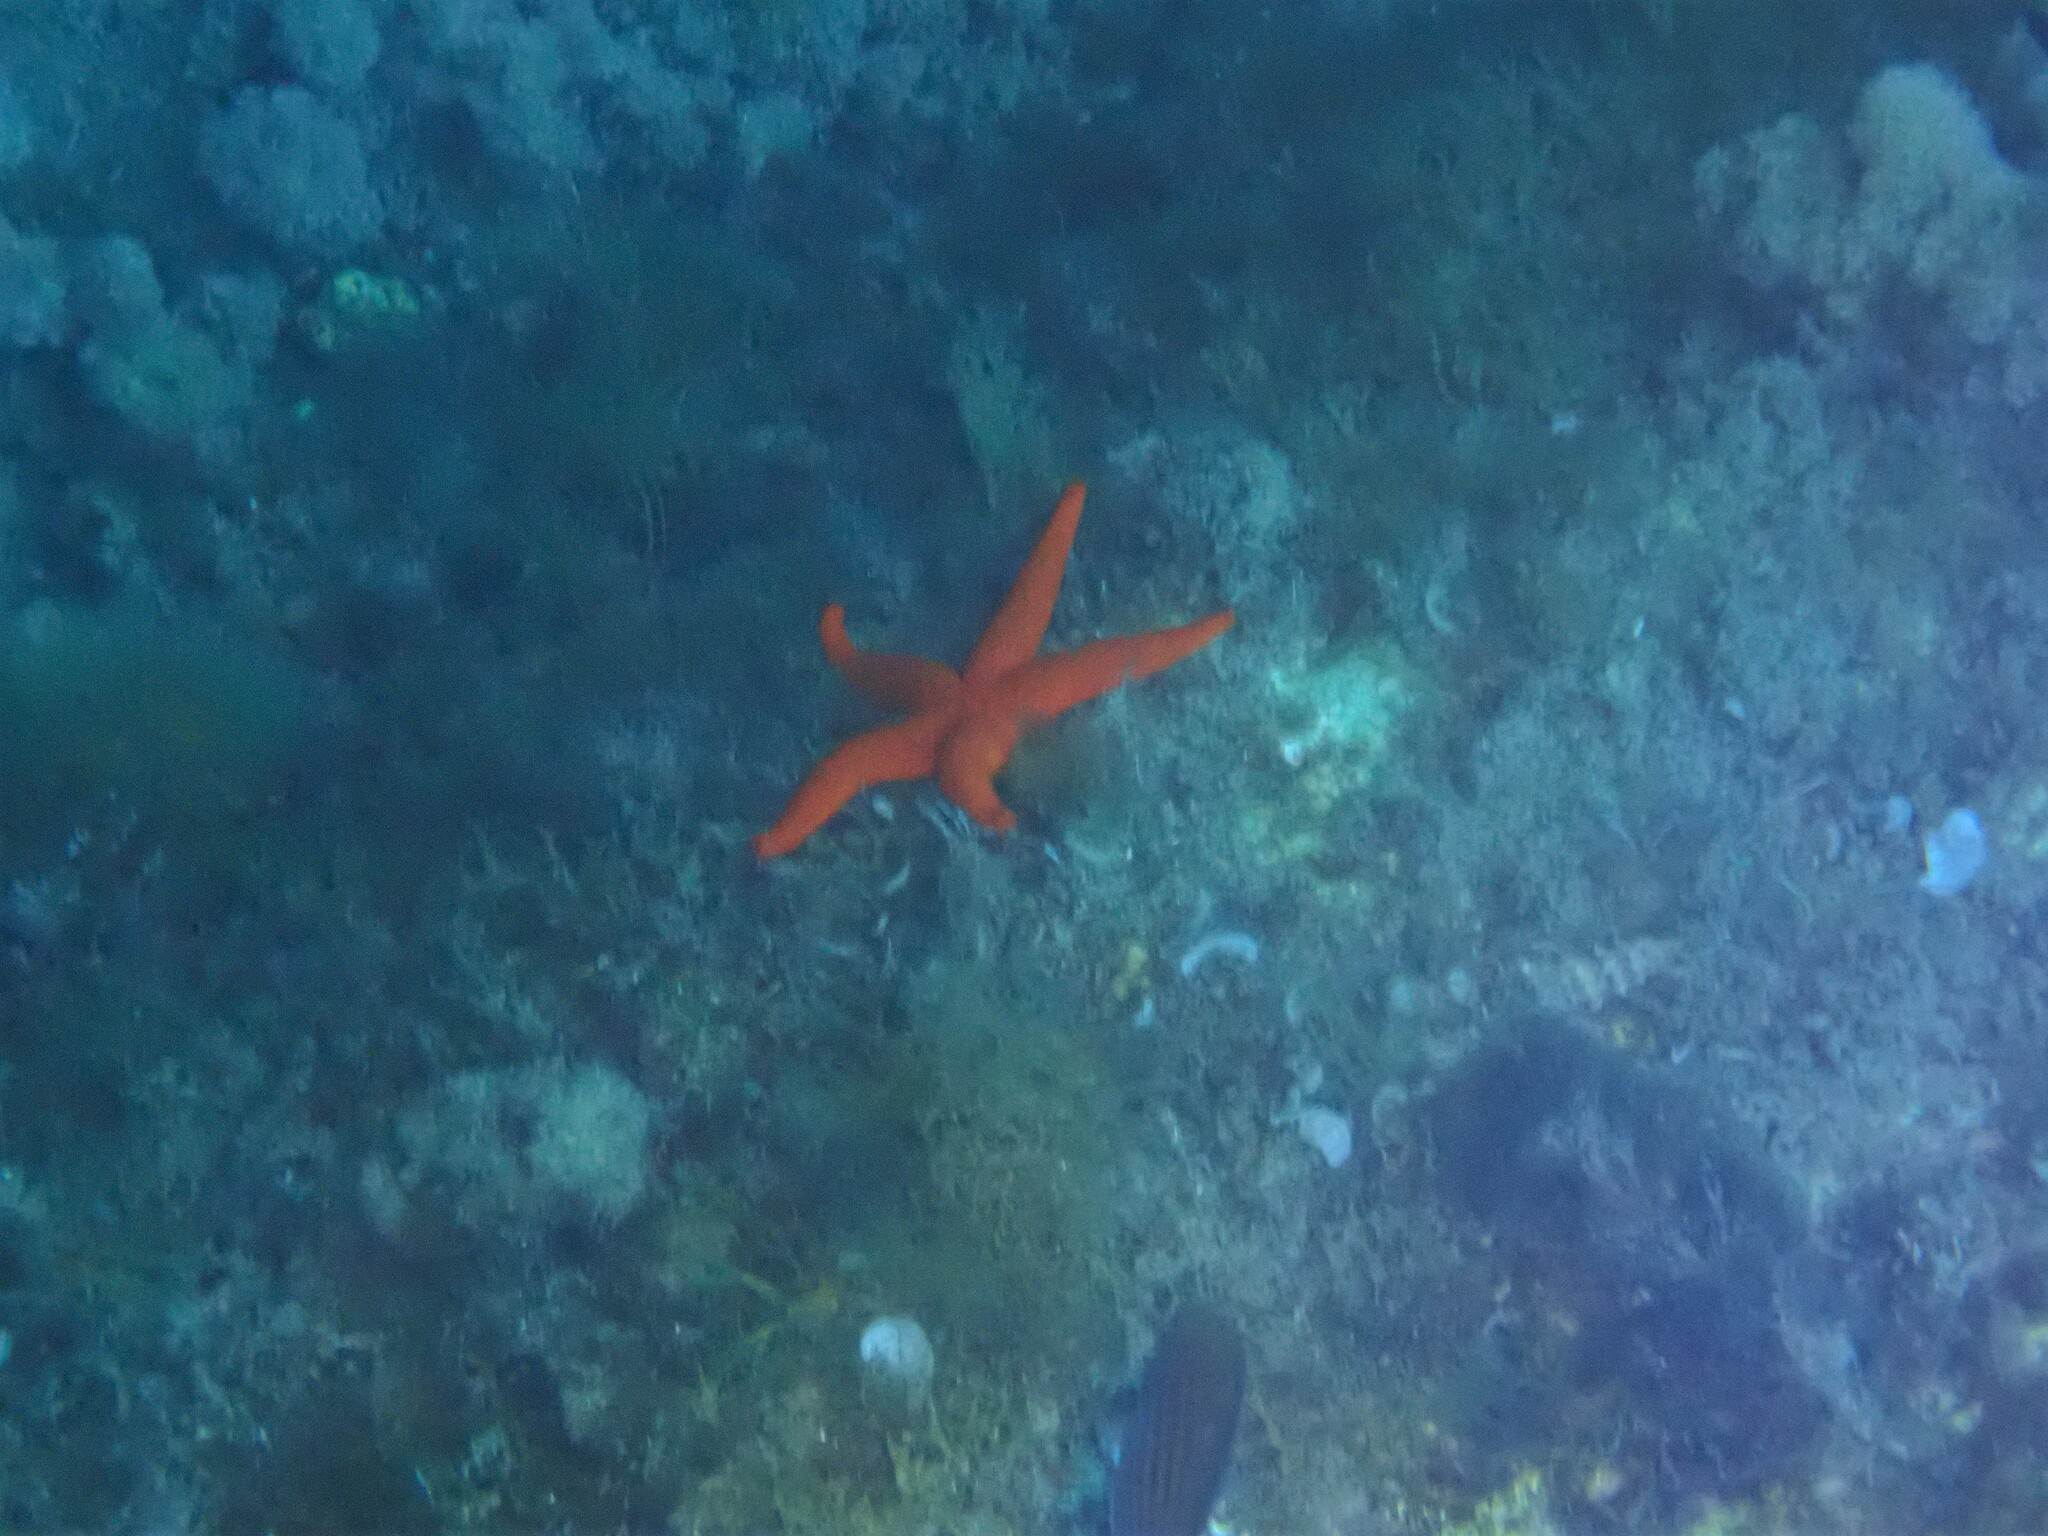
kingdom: Animalia
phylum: Echinodermata
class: Asteroidea
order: Spinulosida
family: Echinasteridae
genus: Echinaster
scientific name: Echinaster sepositus
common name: Red starfish
